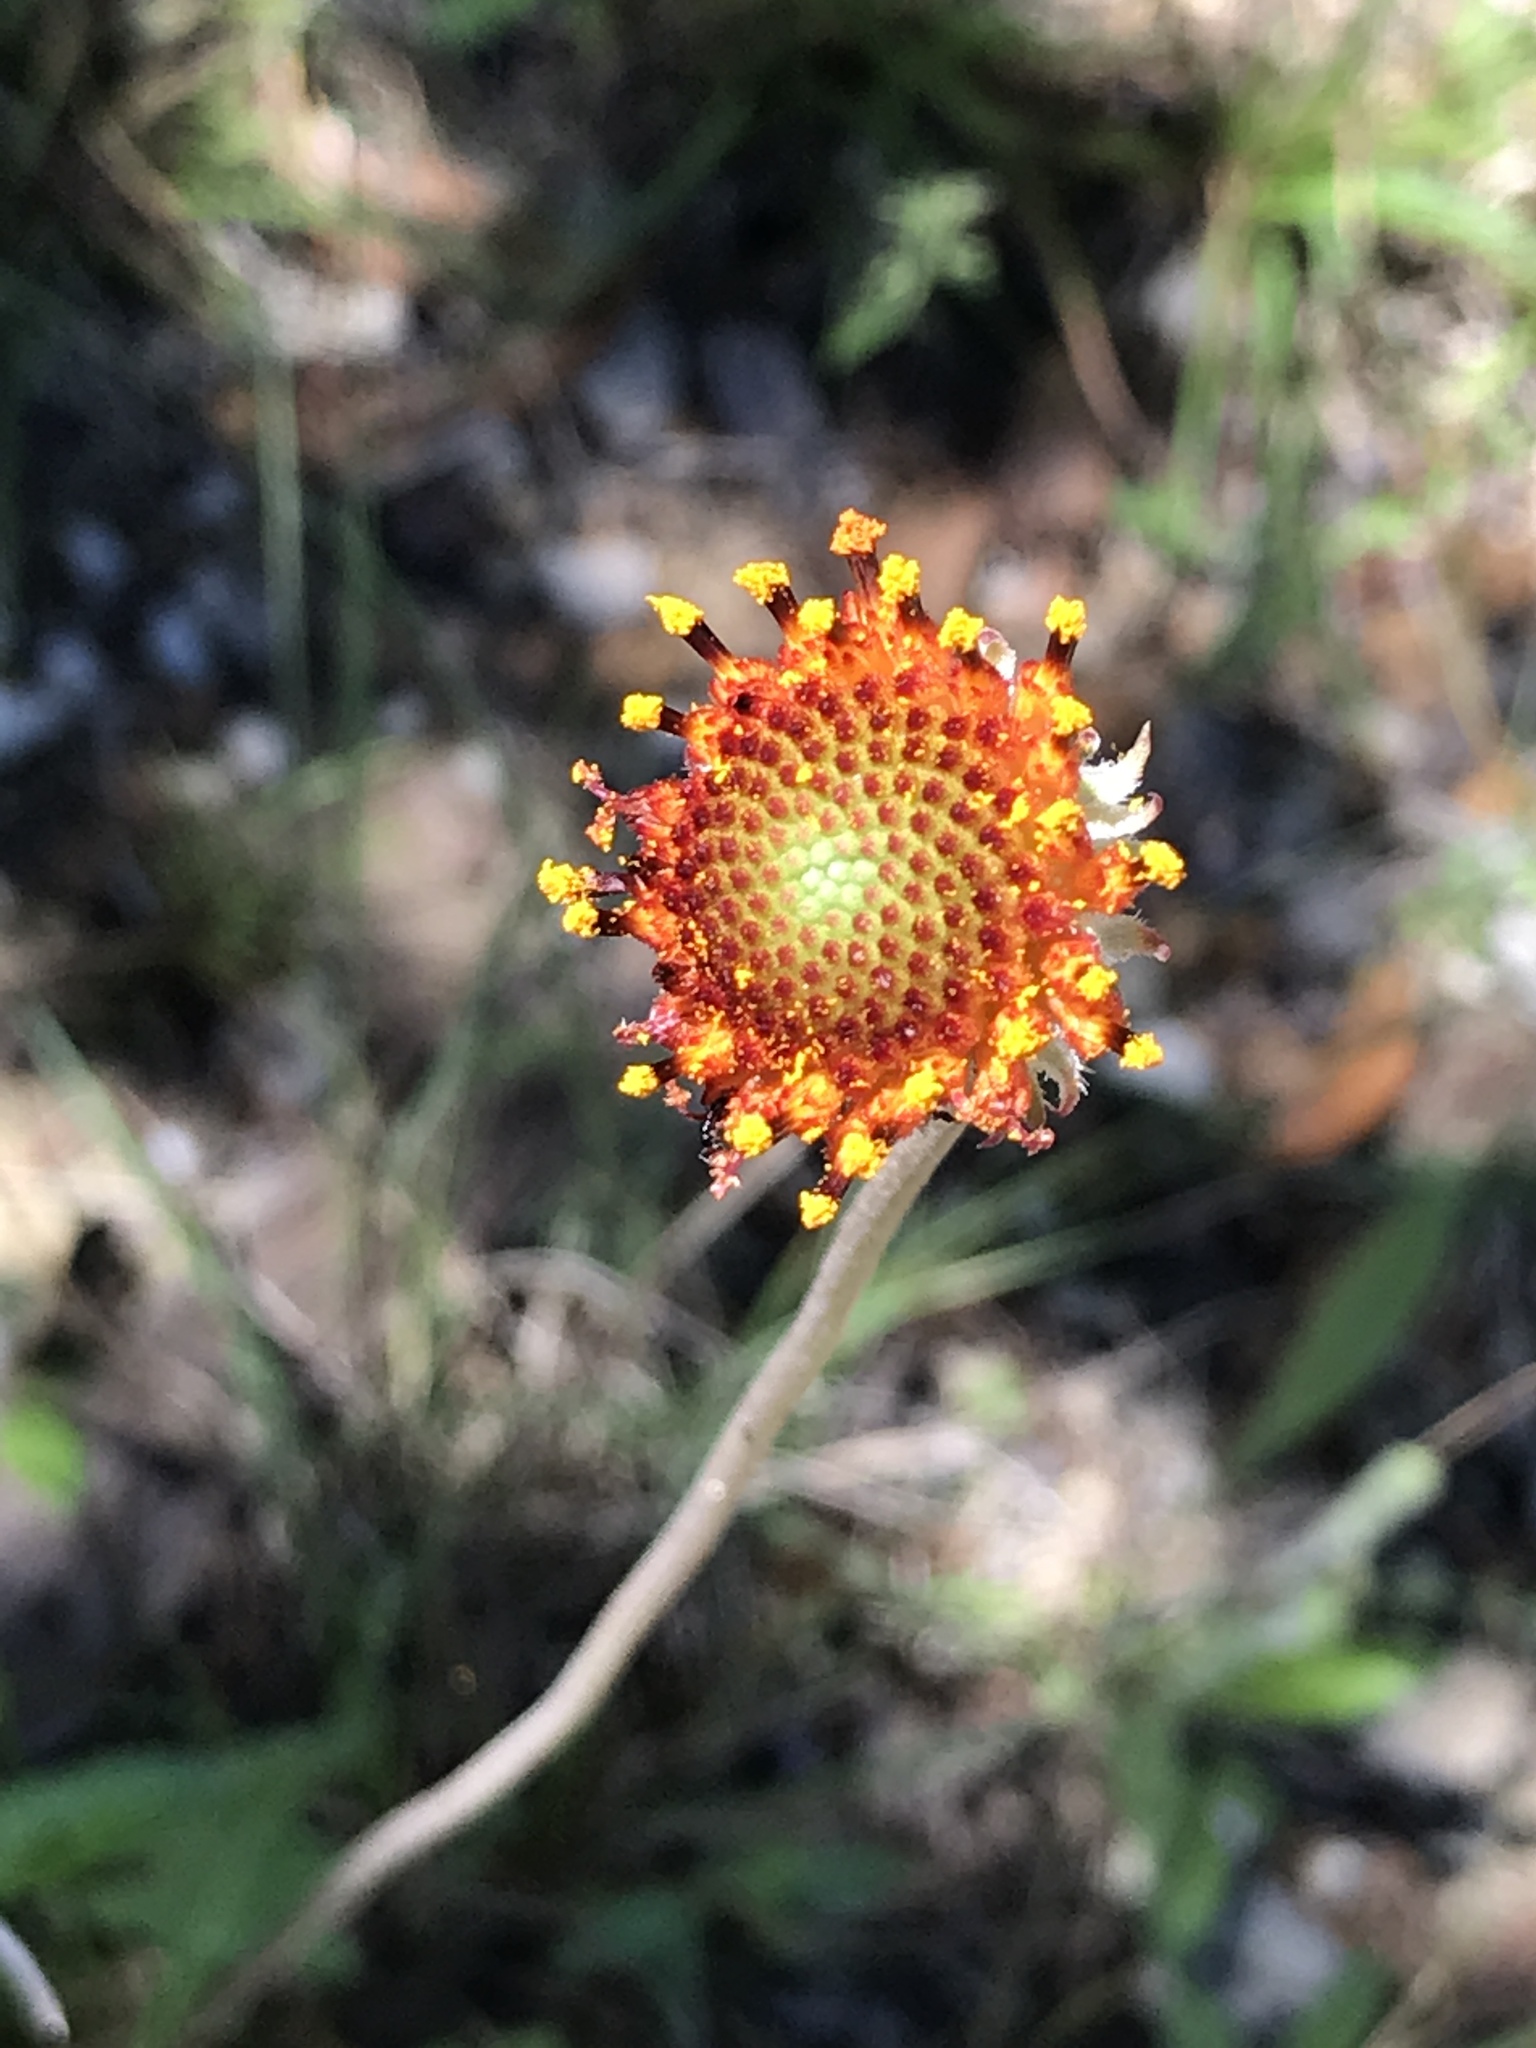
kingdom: Plantae
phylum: Tracheophyta
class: Magnoliopsida
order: Asterales
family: Asteraceae
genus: Gaillardia
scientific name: Gaillardia suavis
